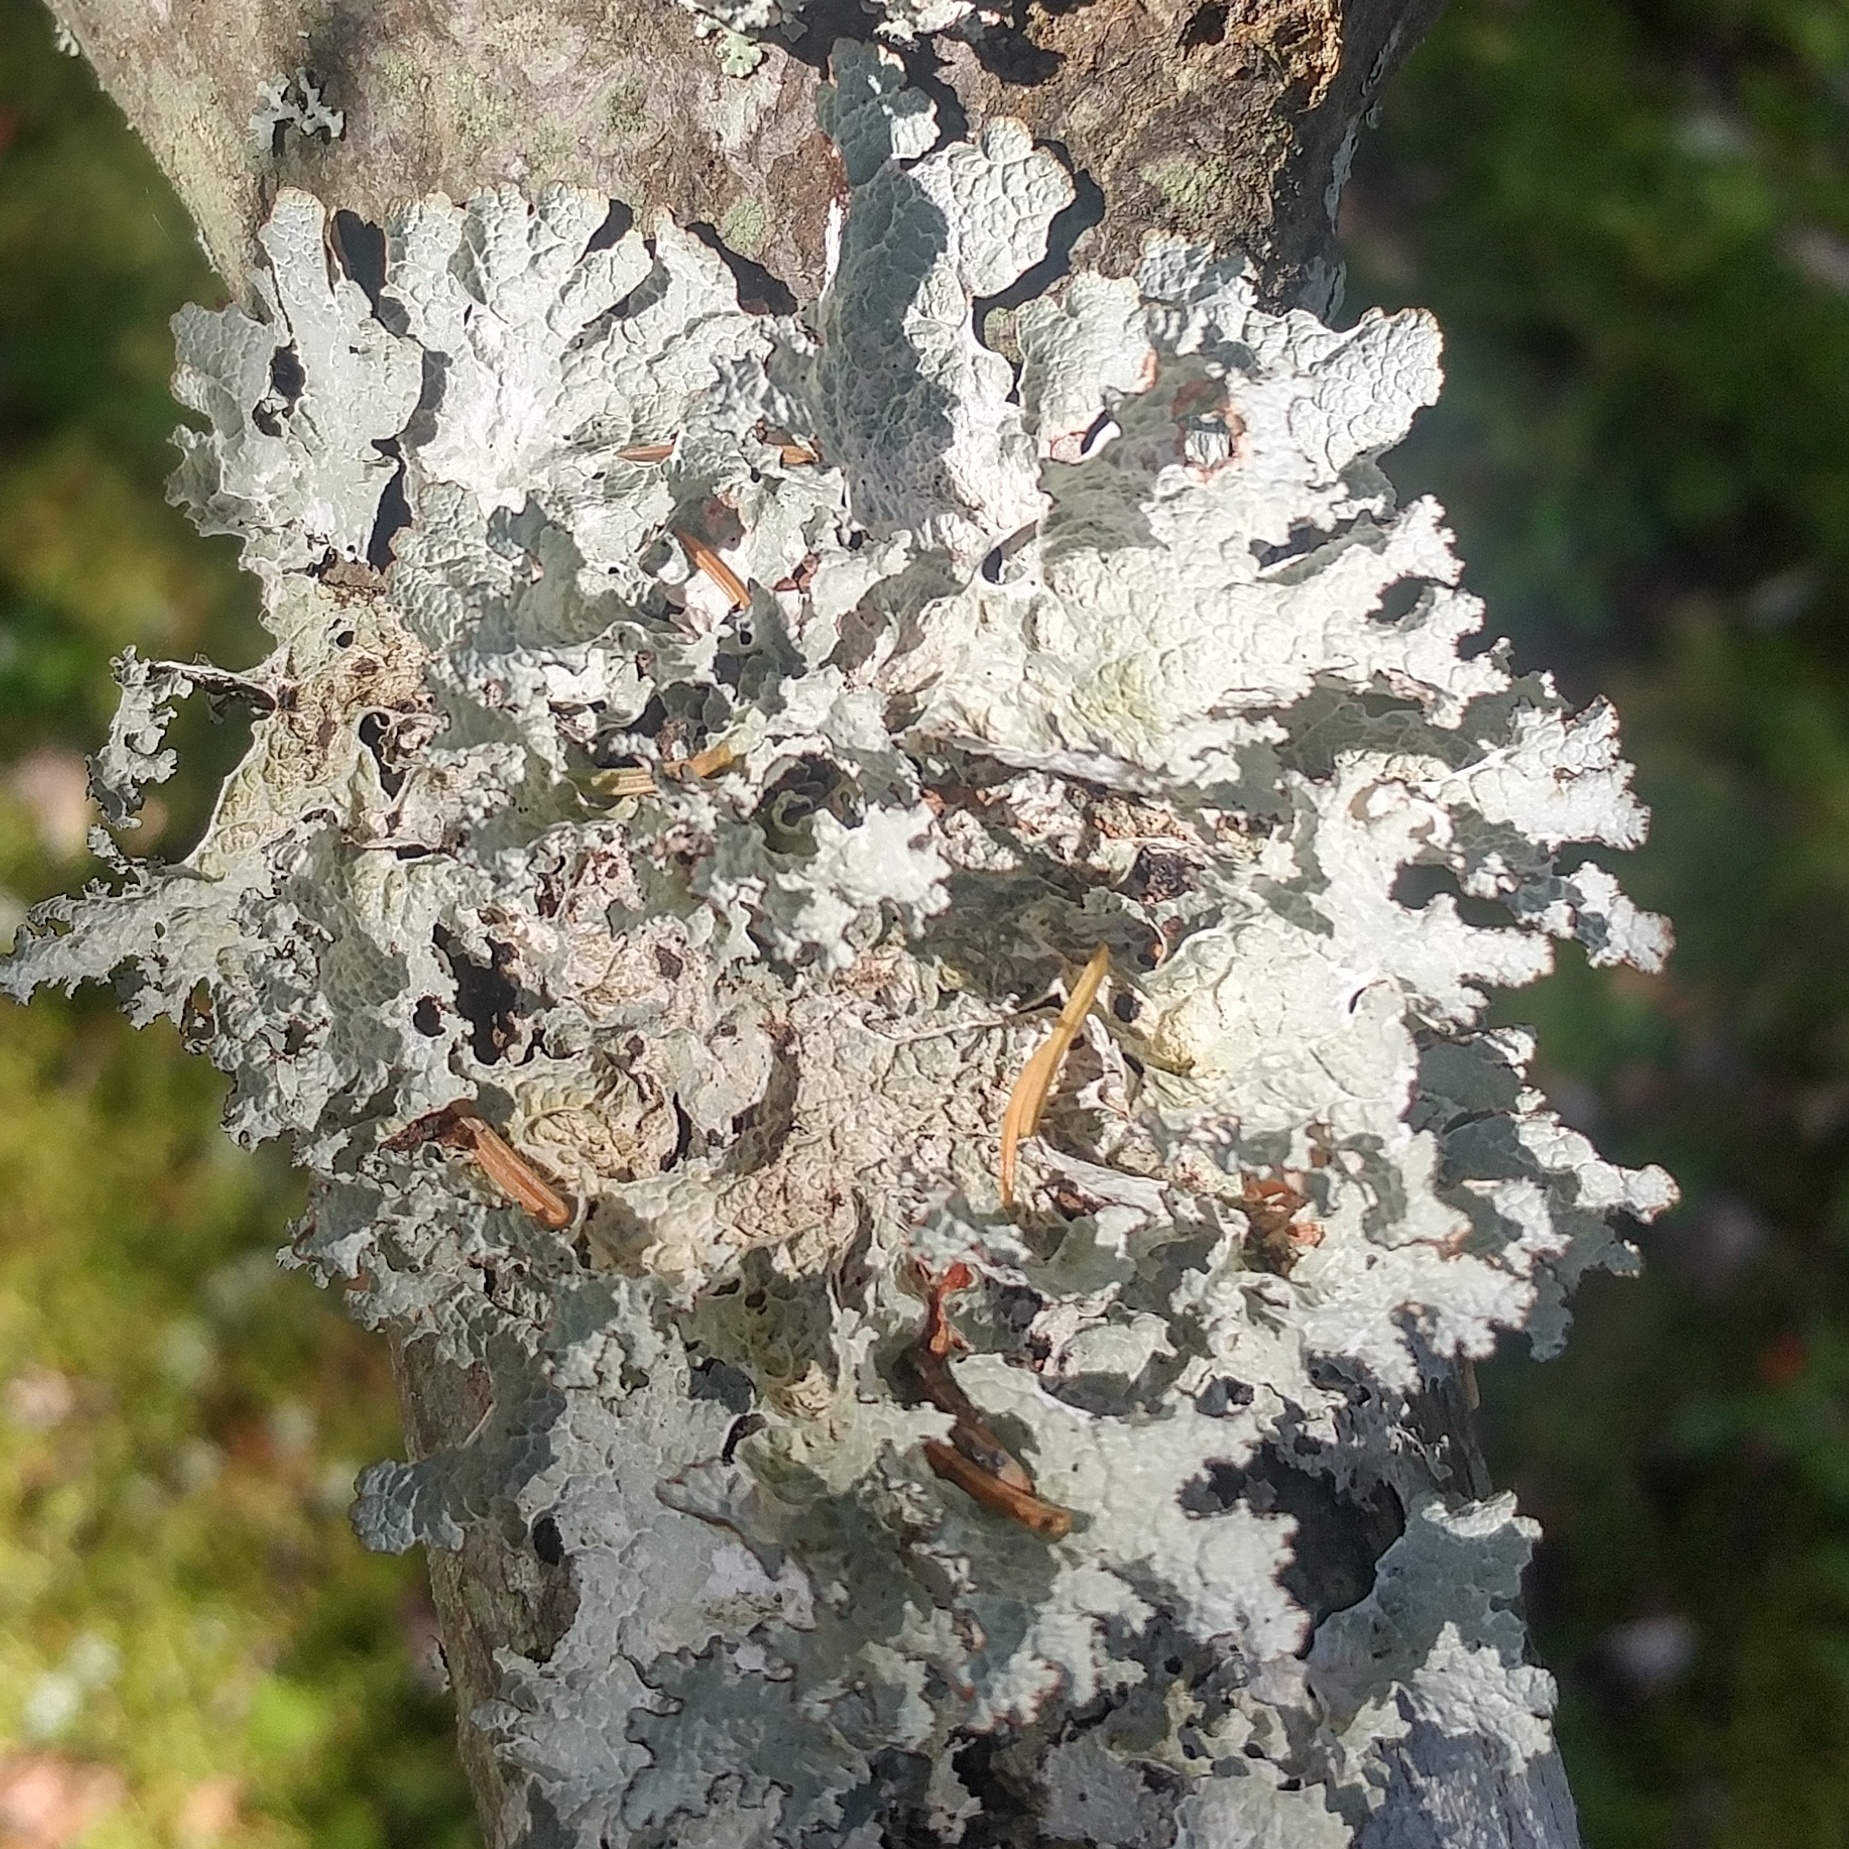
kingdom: Fungi
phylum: Ascomycota
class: Lecanoromycetes
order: Lecanorales
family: Parmeliaceae
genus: Platismatia
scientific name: Platismatia tuckermanii
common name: Crumpled rag lichen
